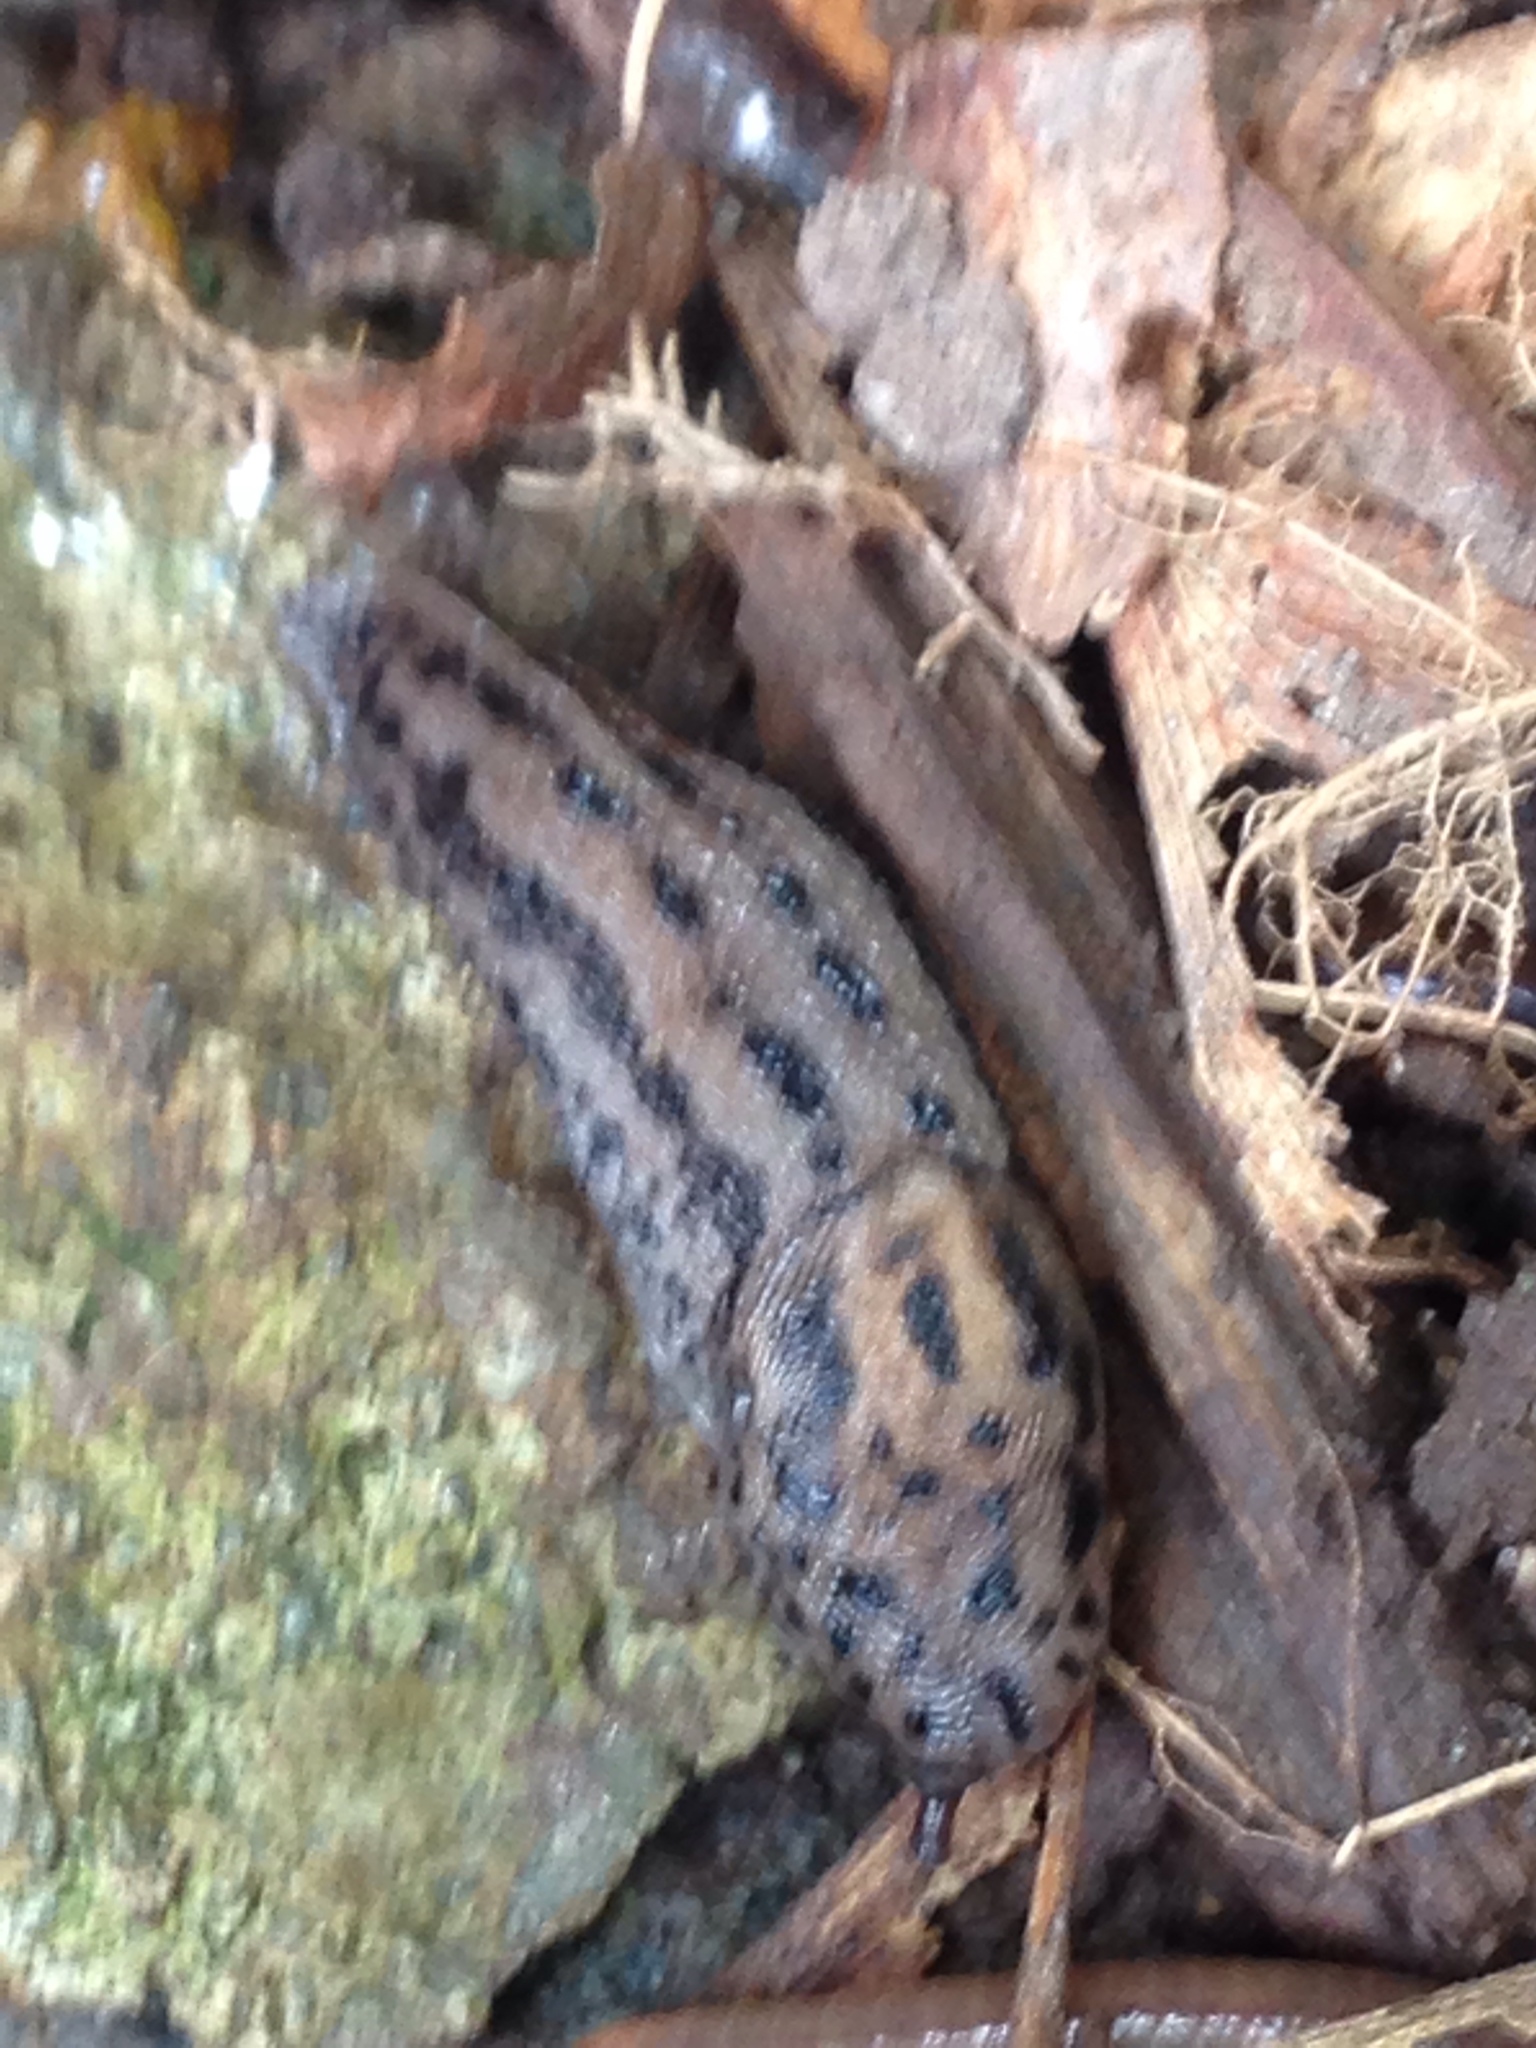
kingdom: Animalia
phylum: Mollusca
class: Gastropoda
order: Stylommatophora
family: Limacidae
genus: Limax
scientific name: Limax maximus
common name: Great grey slug
